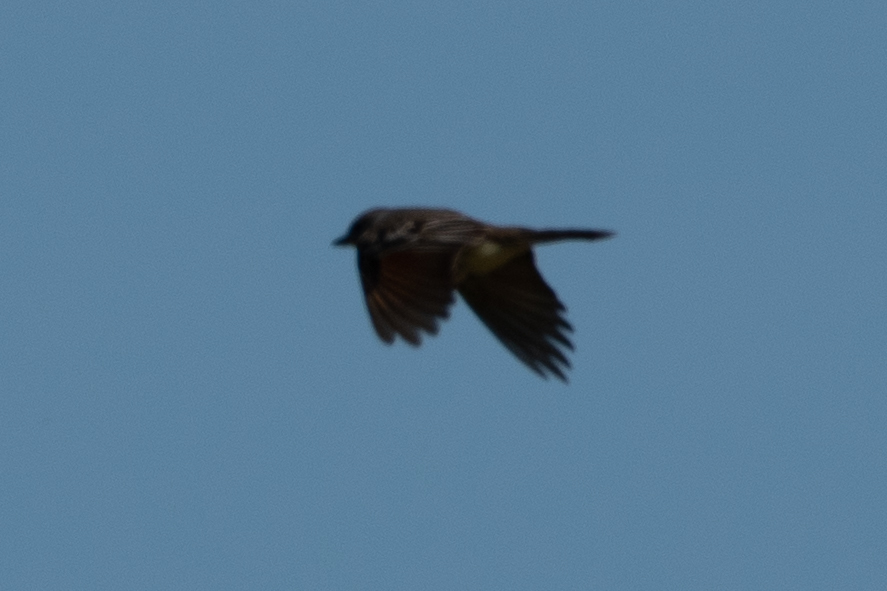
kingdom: Animalia
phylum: Chordata
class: Aves
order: Passeriformes
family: Tyrannidae
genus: Myiarchus
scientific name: Myiarchus cinerascens
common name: Ash-throated flycatcher
